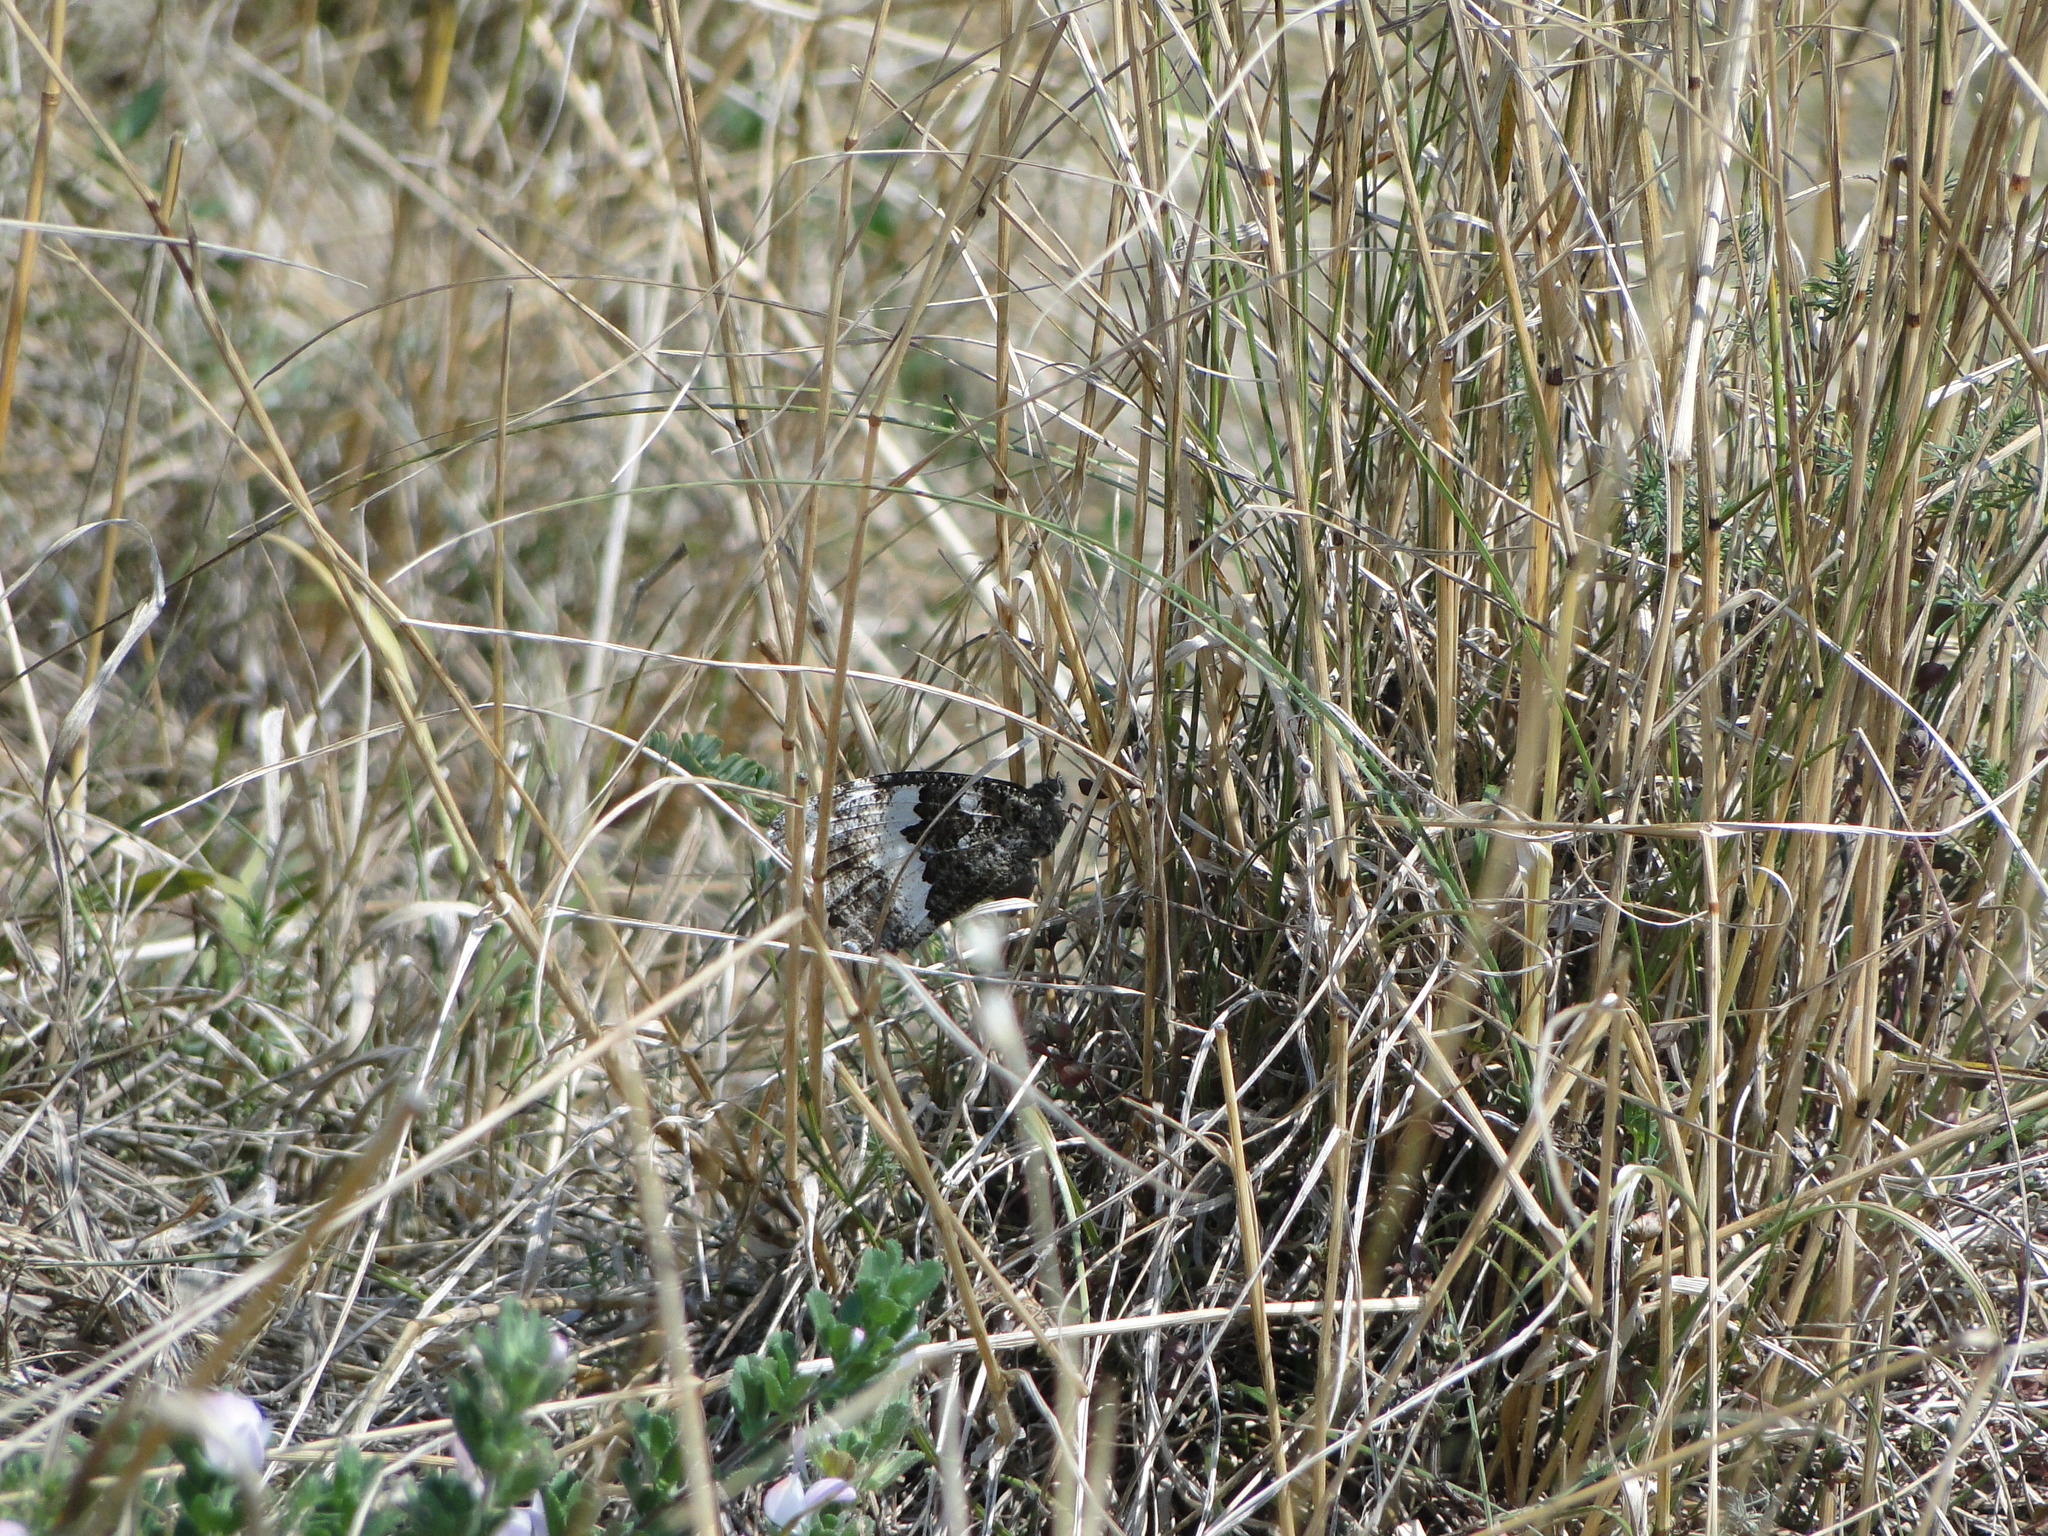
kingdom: Animalia
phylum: Arthropoda
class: Insecta
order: Lepidoptera
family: Lycaenidae
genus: Loweia
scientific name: Loweia tityrus
